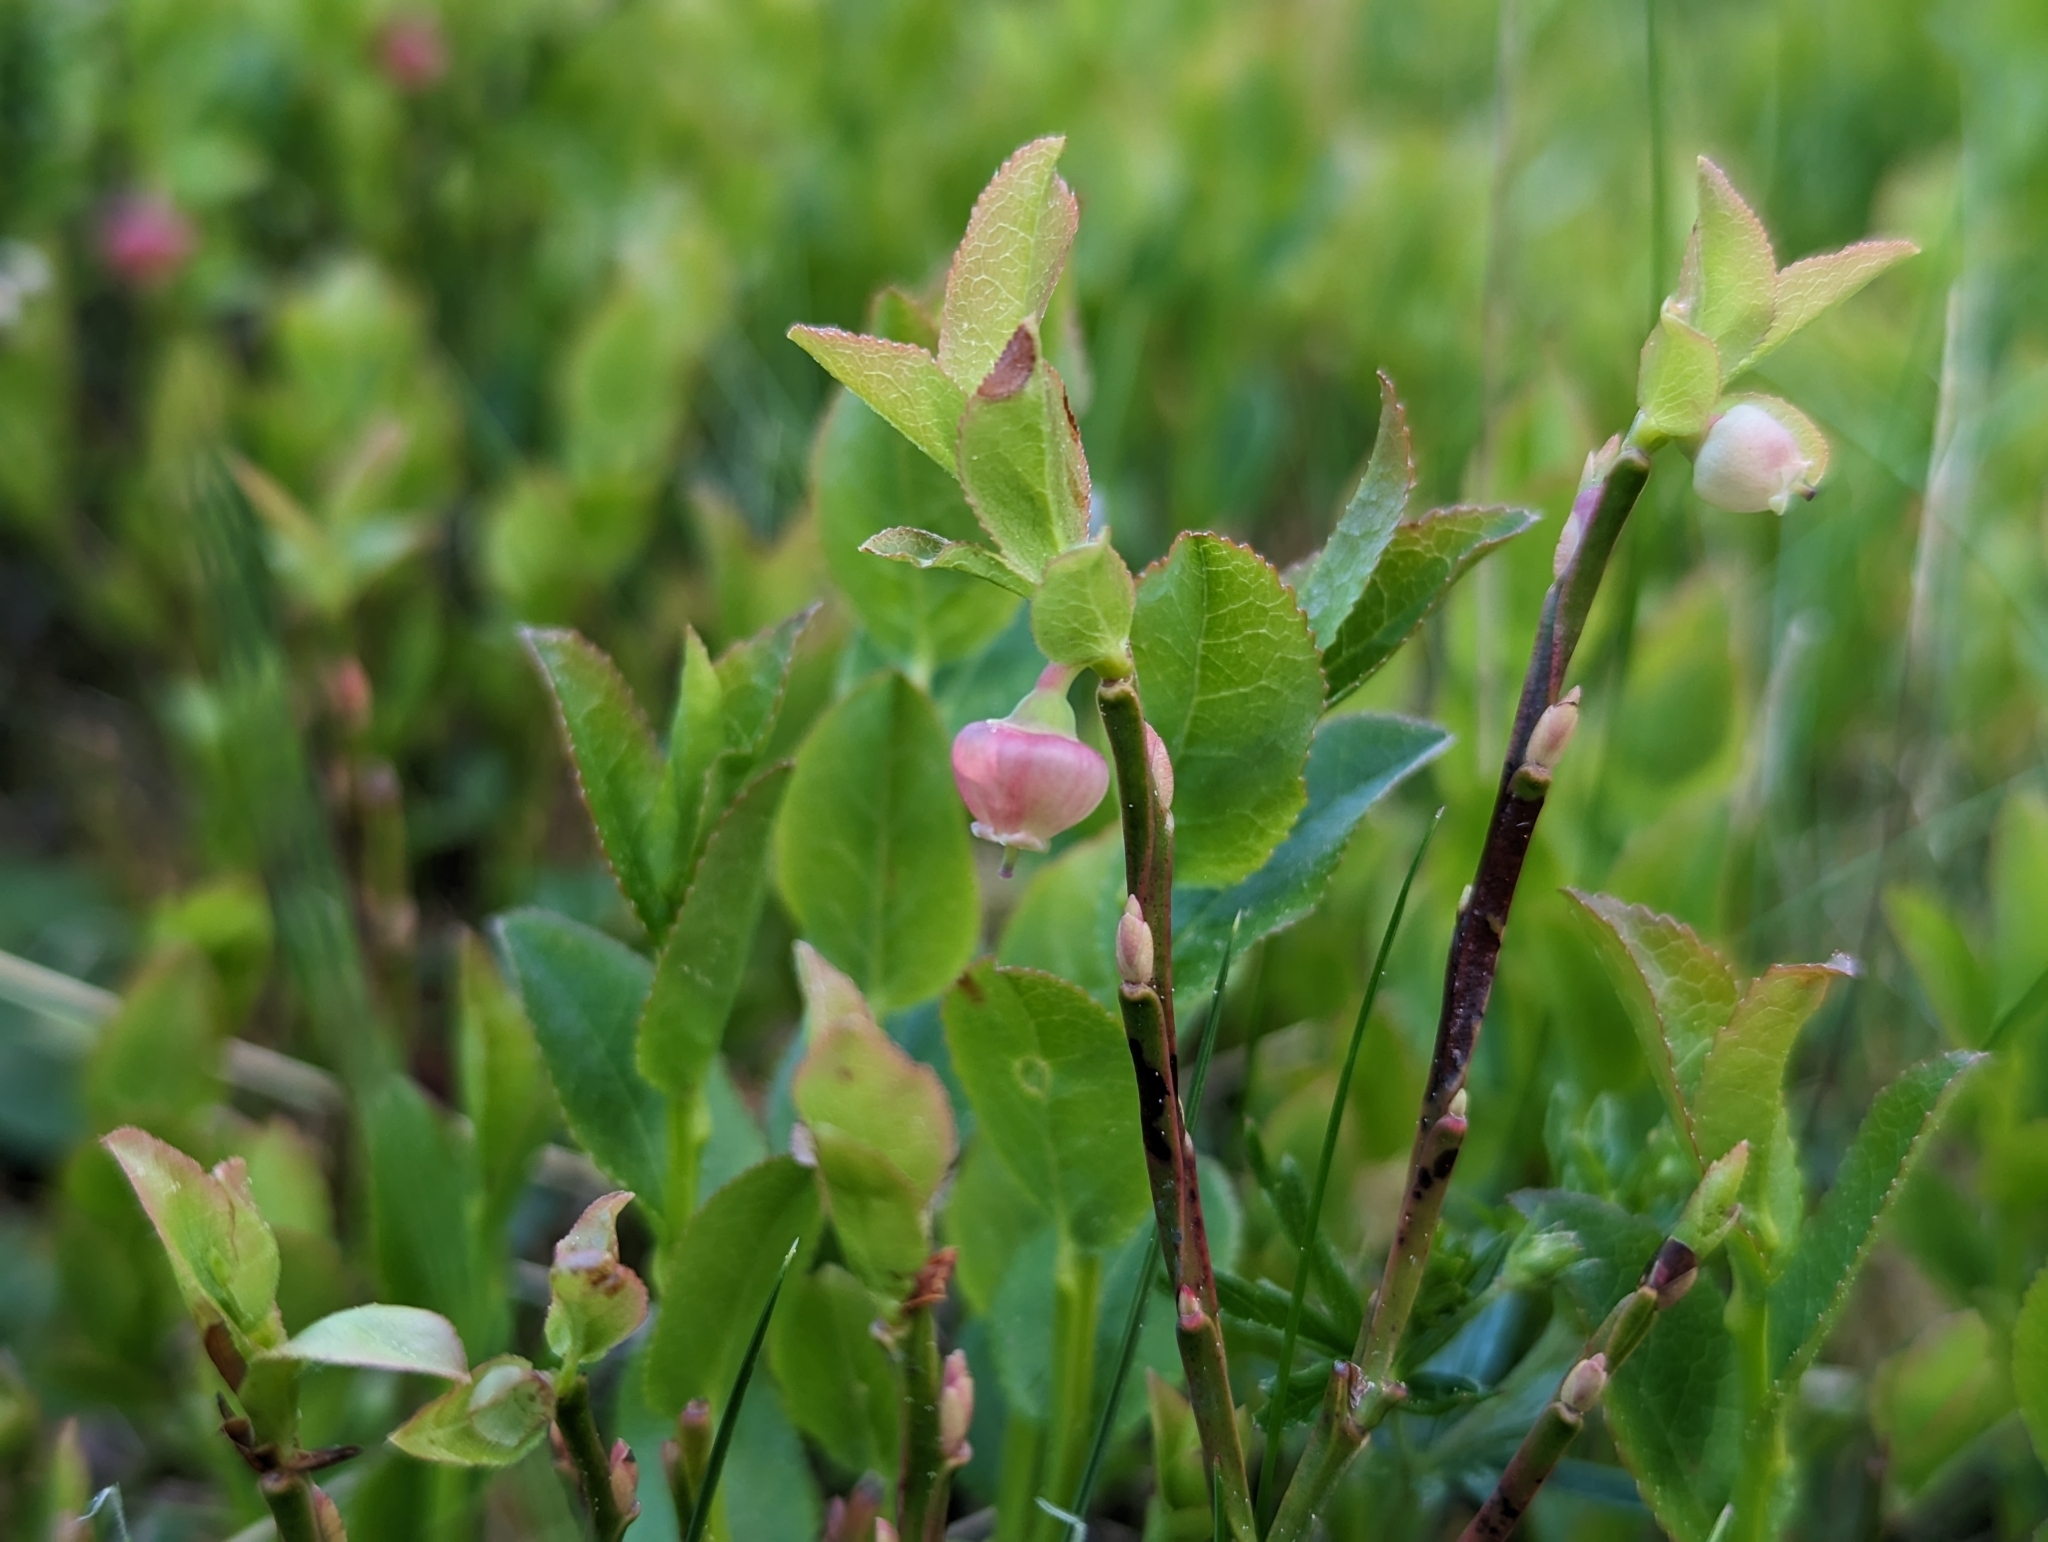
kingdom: Plantae
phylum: Tracheophyta
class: Magnoliopsida
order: Ericales
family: Ericaceae
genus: Vaccinium
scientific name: Vaccinium myrtillus
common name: Bilberry
